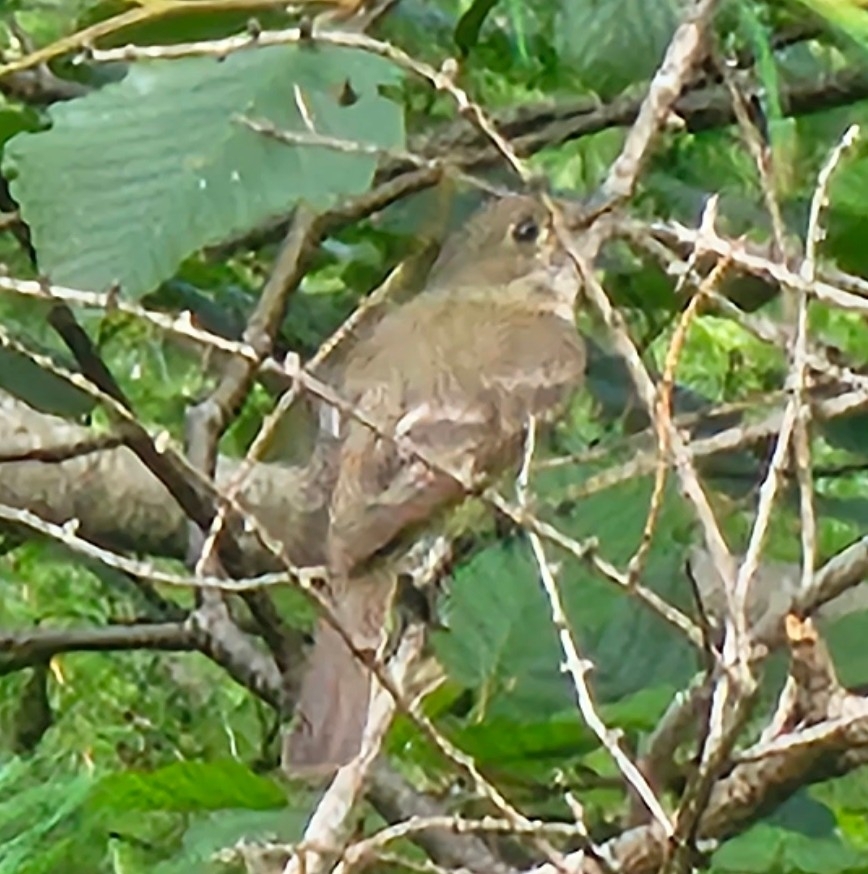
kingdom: Animalia
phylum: Chordata
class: Aves
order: Passeriformes
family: Tyrannidae
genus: Empidonax
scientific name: Empidonax alnorum
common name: Alder flycatcher
